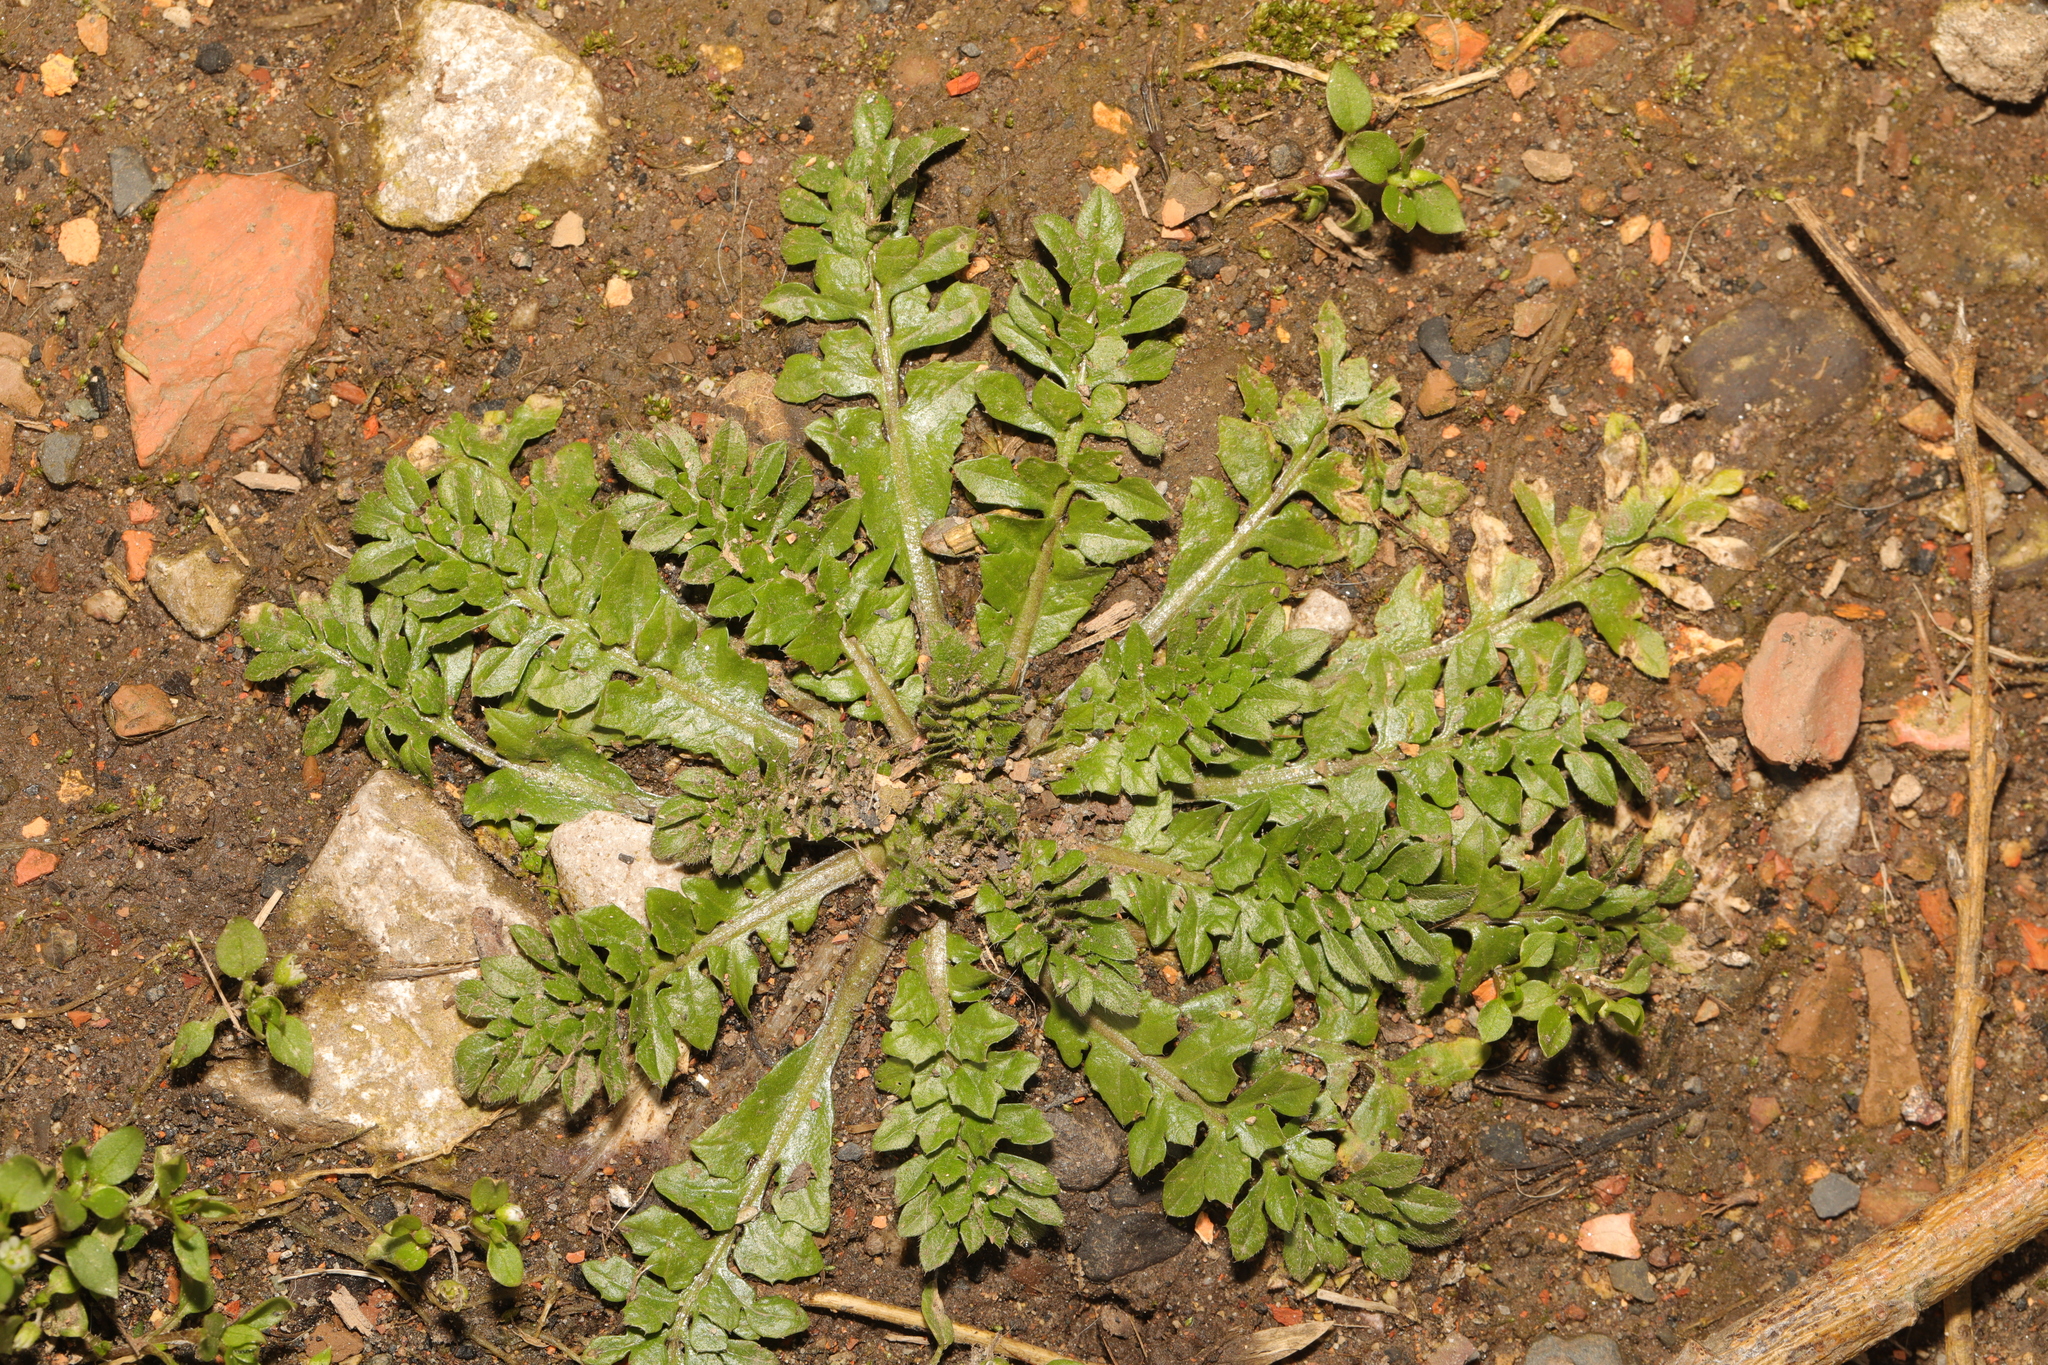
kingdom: Plantae
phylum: Tracheophyta
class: Magnoliopsida
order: Brassicales
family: Brassicaceae
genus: Capsella
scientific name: Capsella bursa-pastoris
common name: Shepherd's purse
